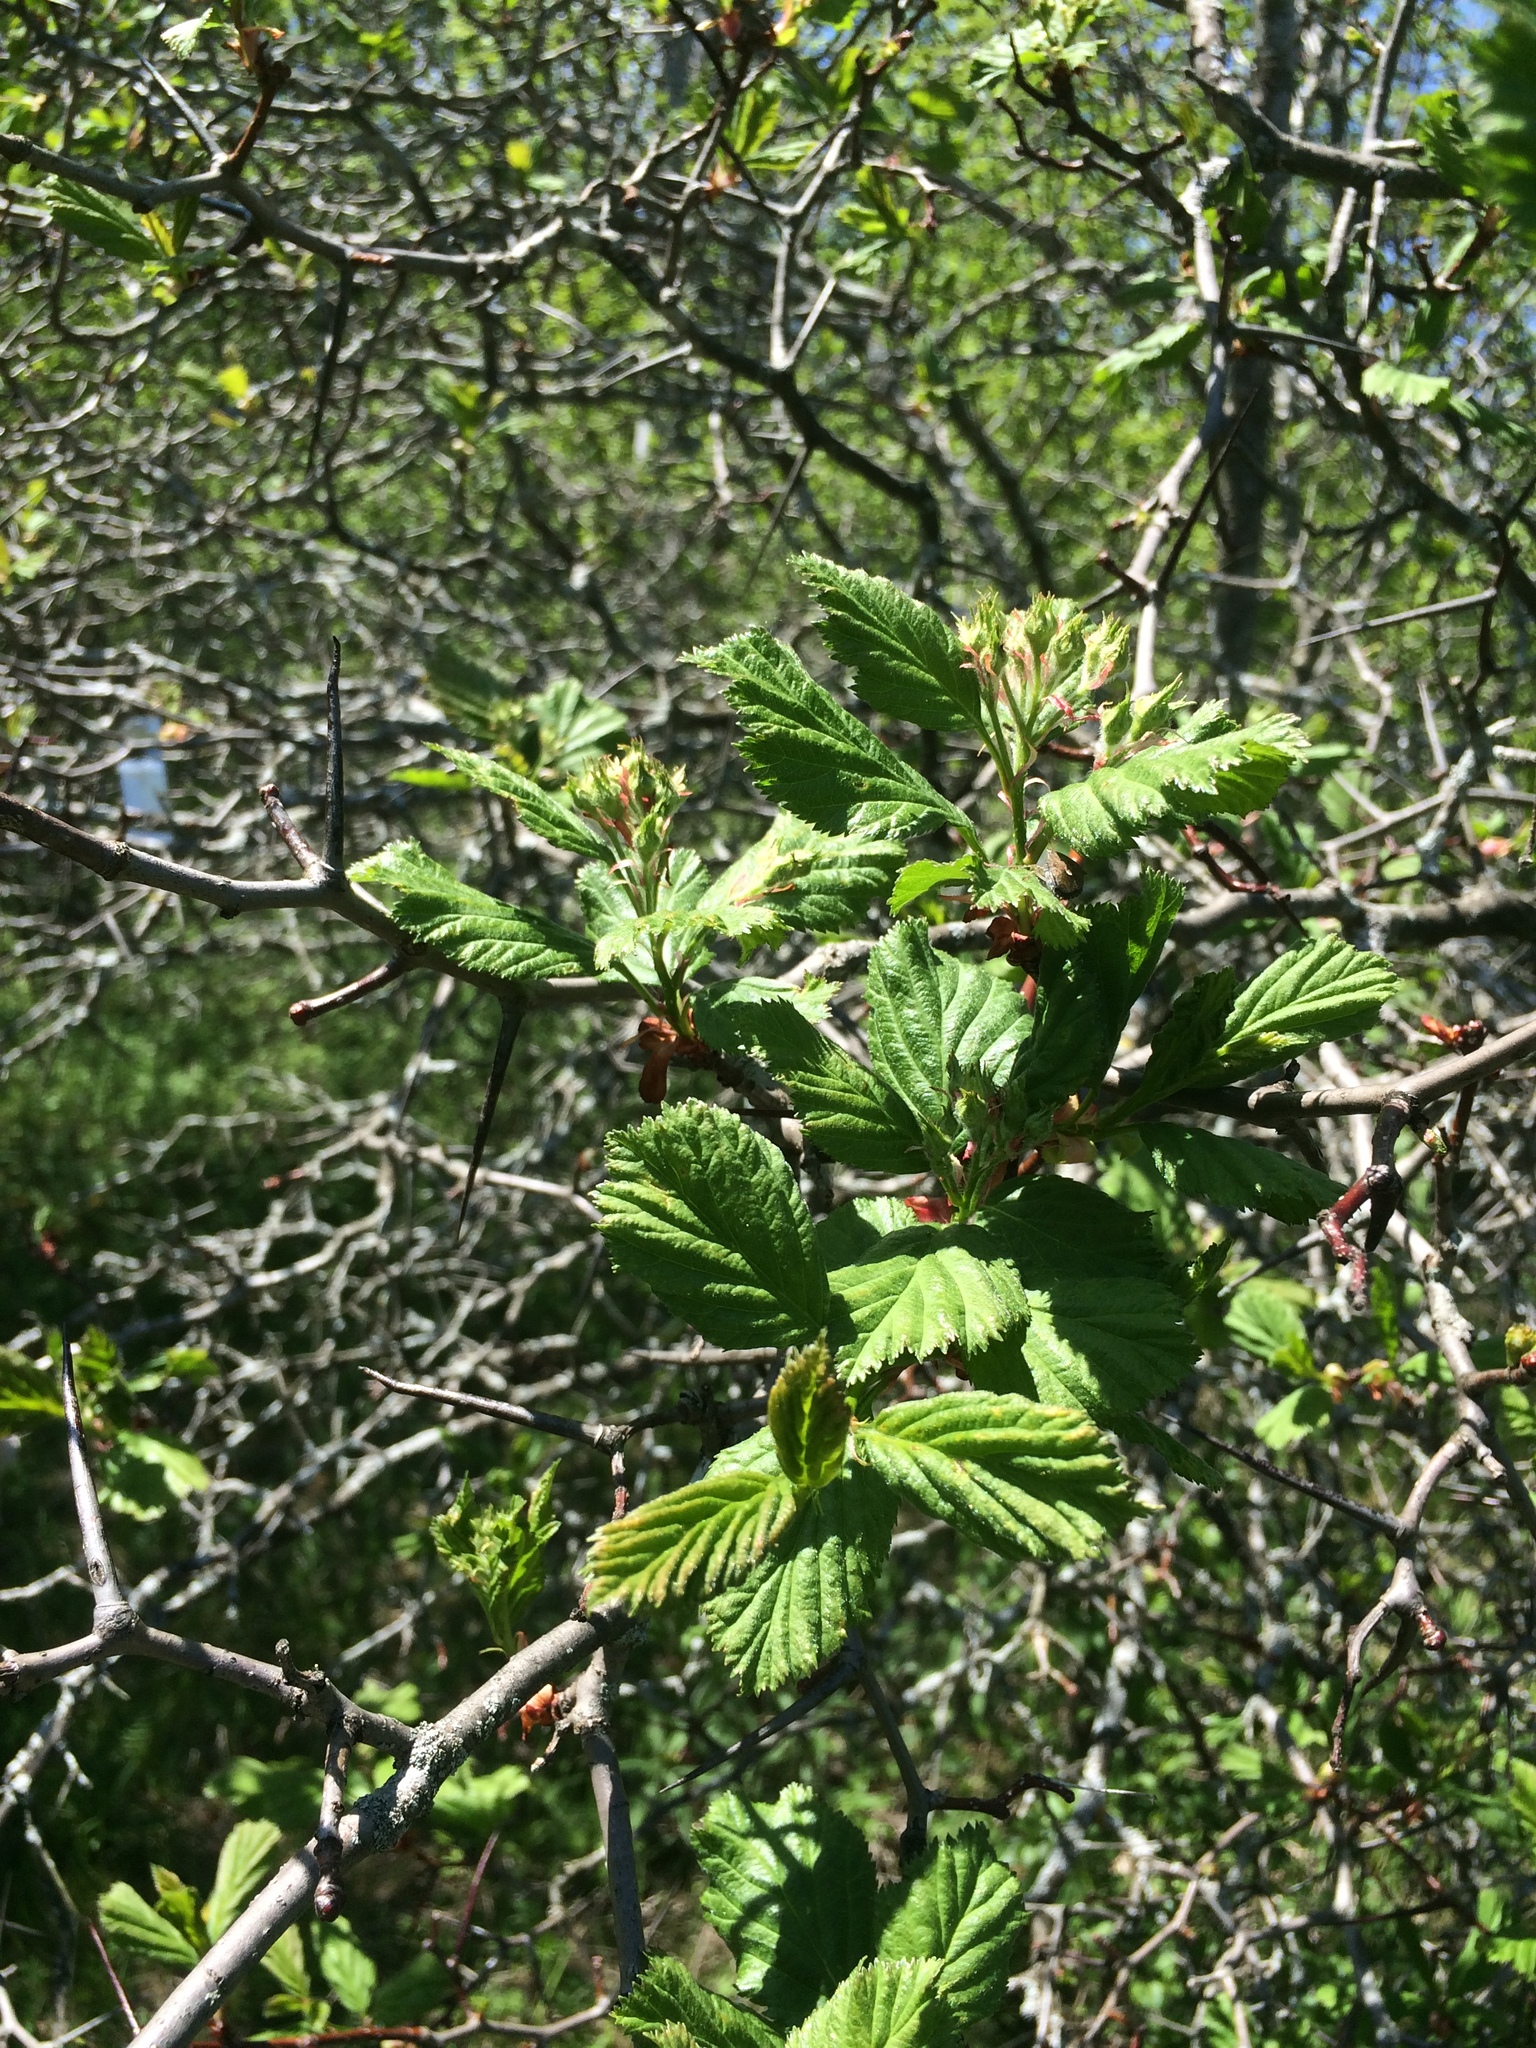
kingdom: Plantae
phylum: Tracheophyta
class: Magnoliopsida
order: Rosales
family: Rosaceae
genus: Crataegus
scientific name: Crataegus macracantha
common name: Large-thorn hawthorn
